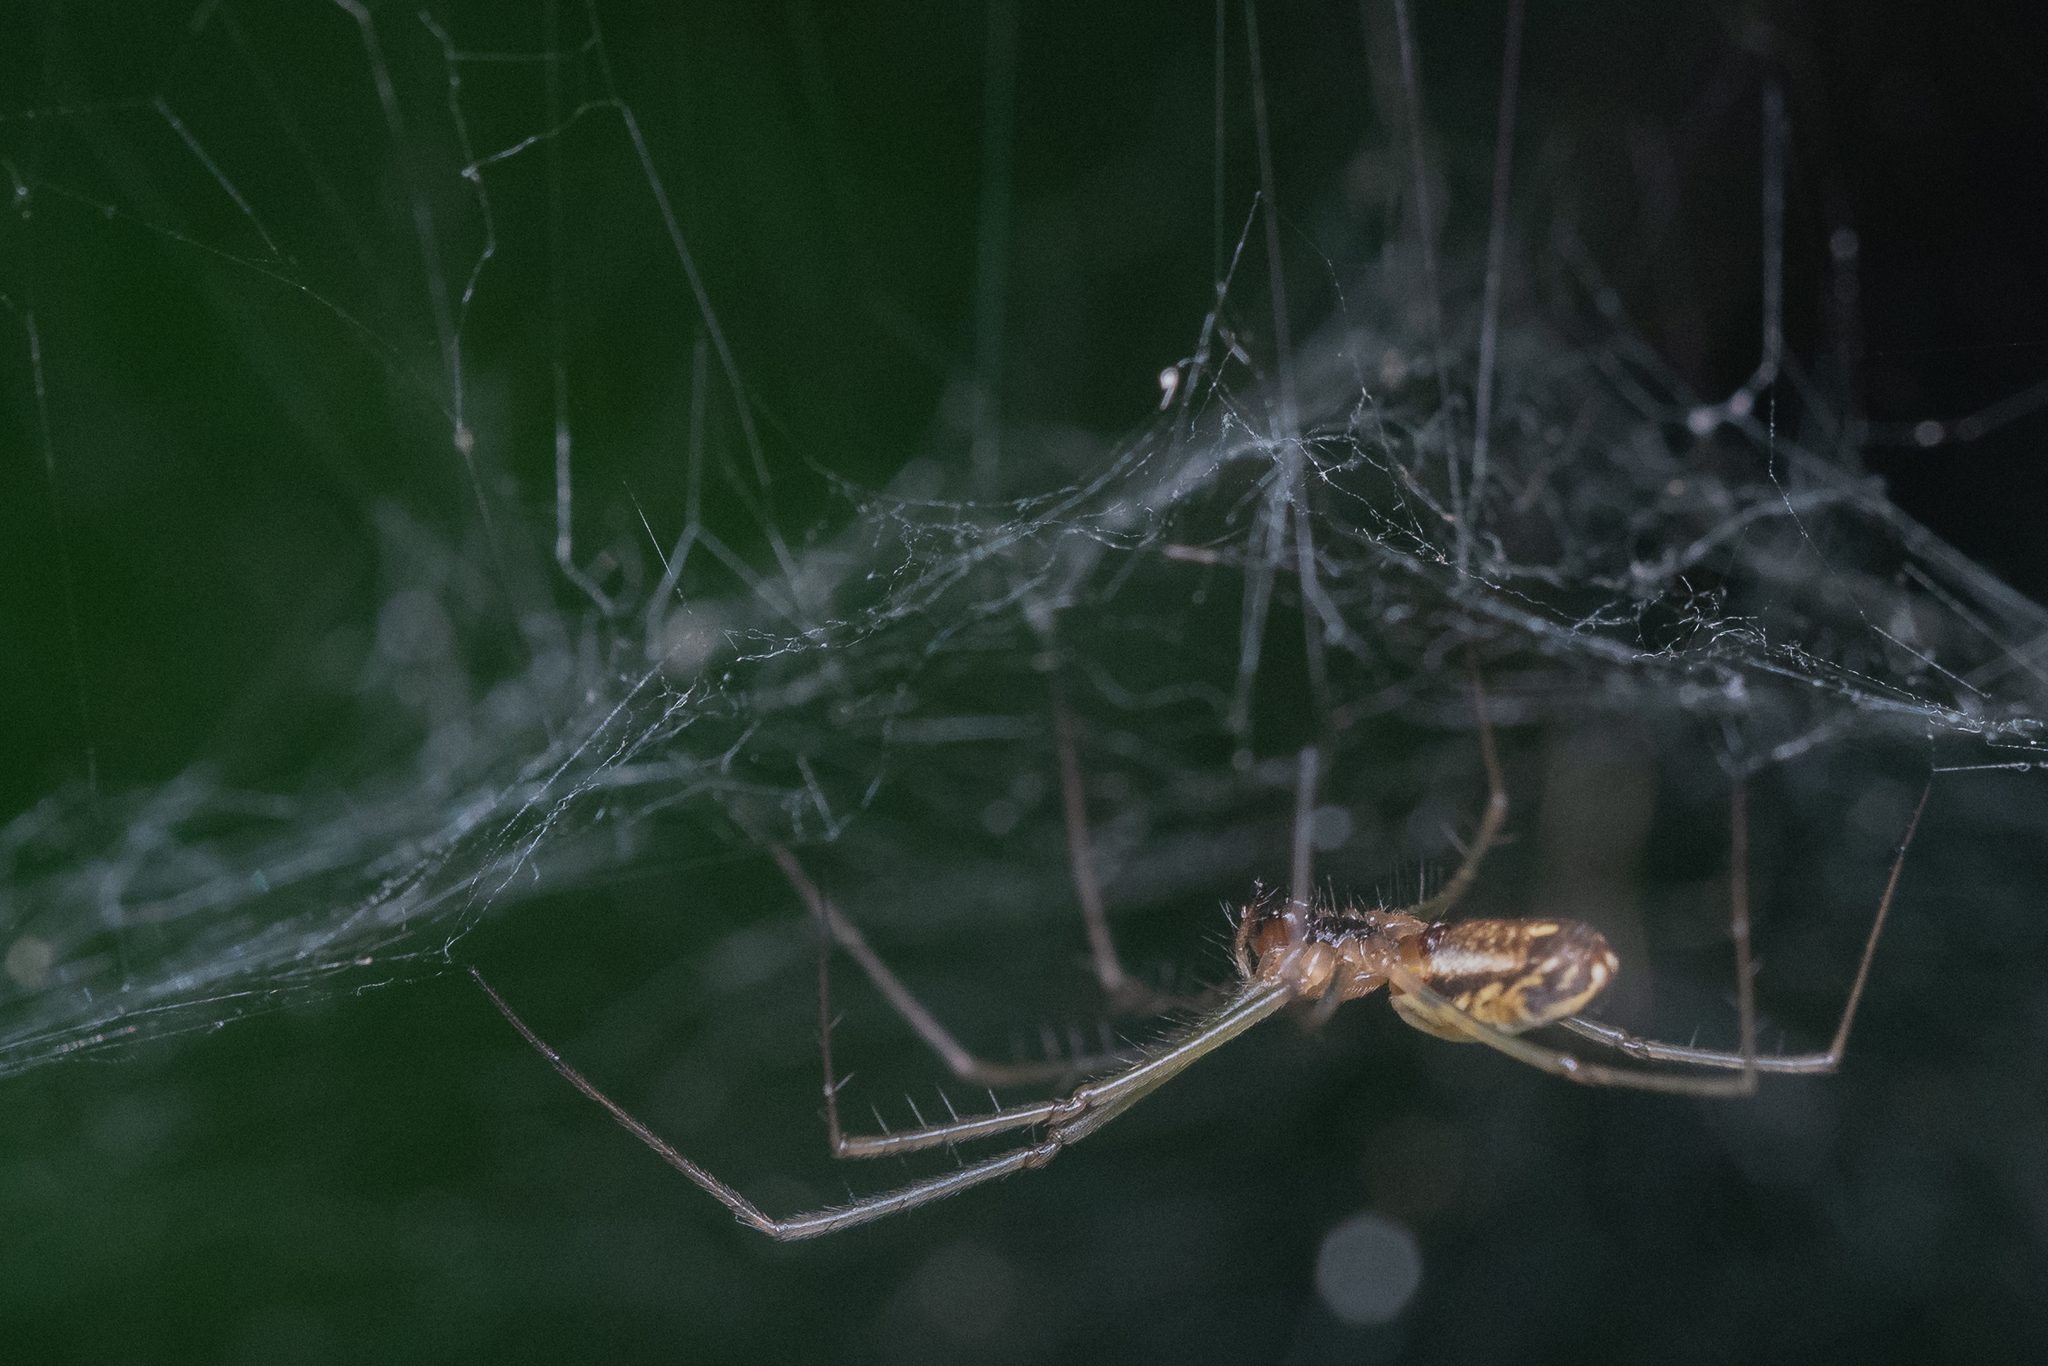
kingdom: Animalia
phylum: Arthropoda
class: Arachnida
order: Araneae
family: Linyphiidae
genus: Neriene
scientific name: Neriene litigiosa
